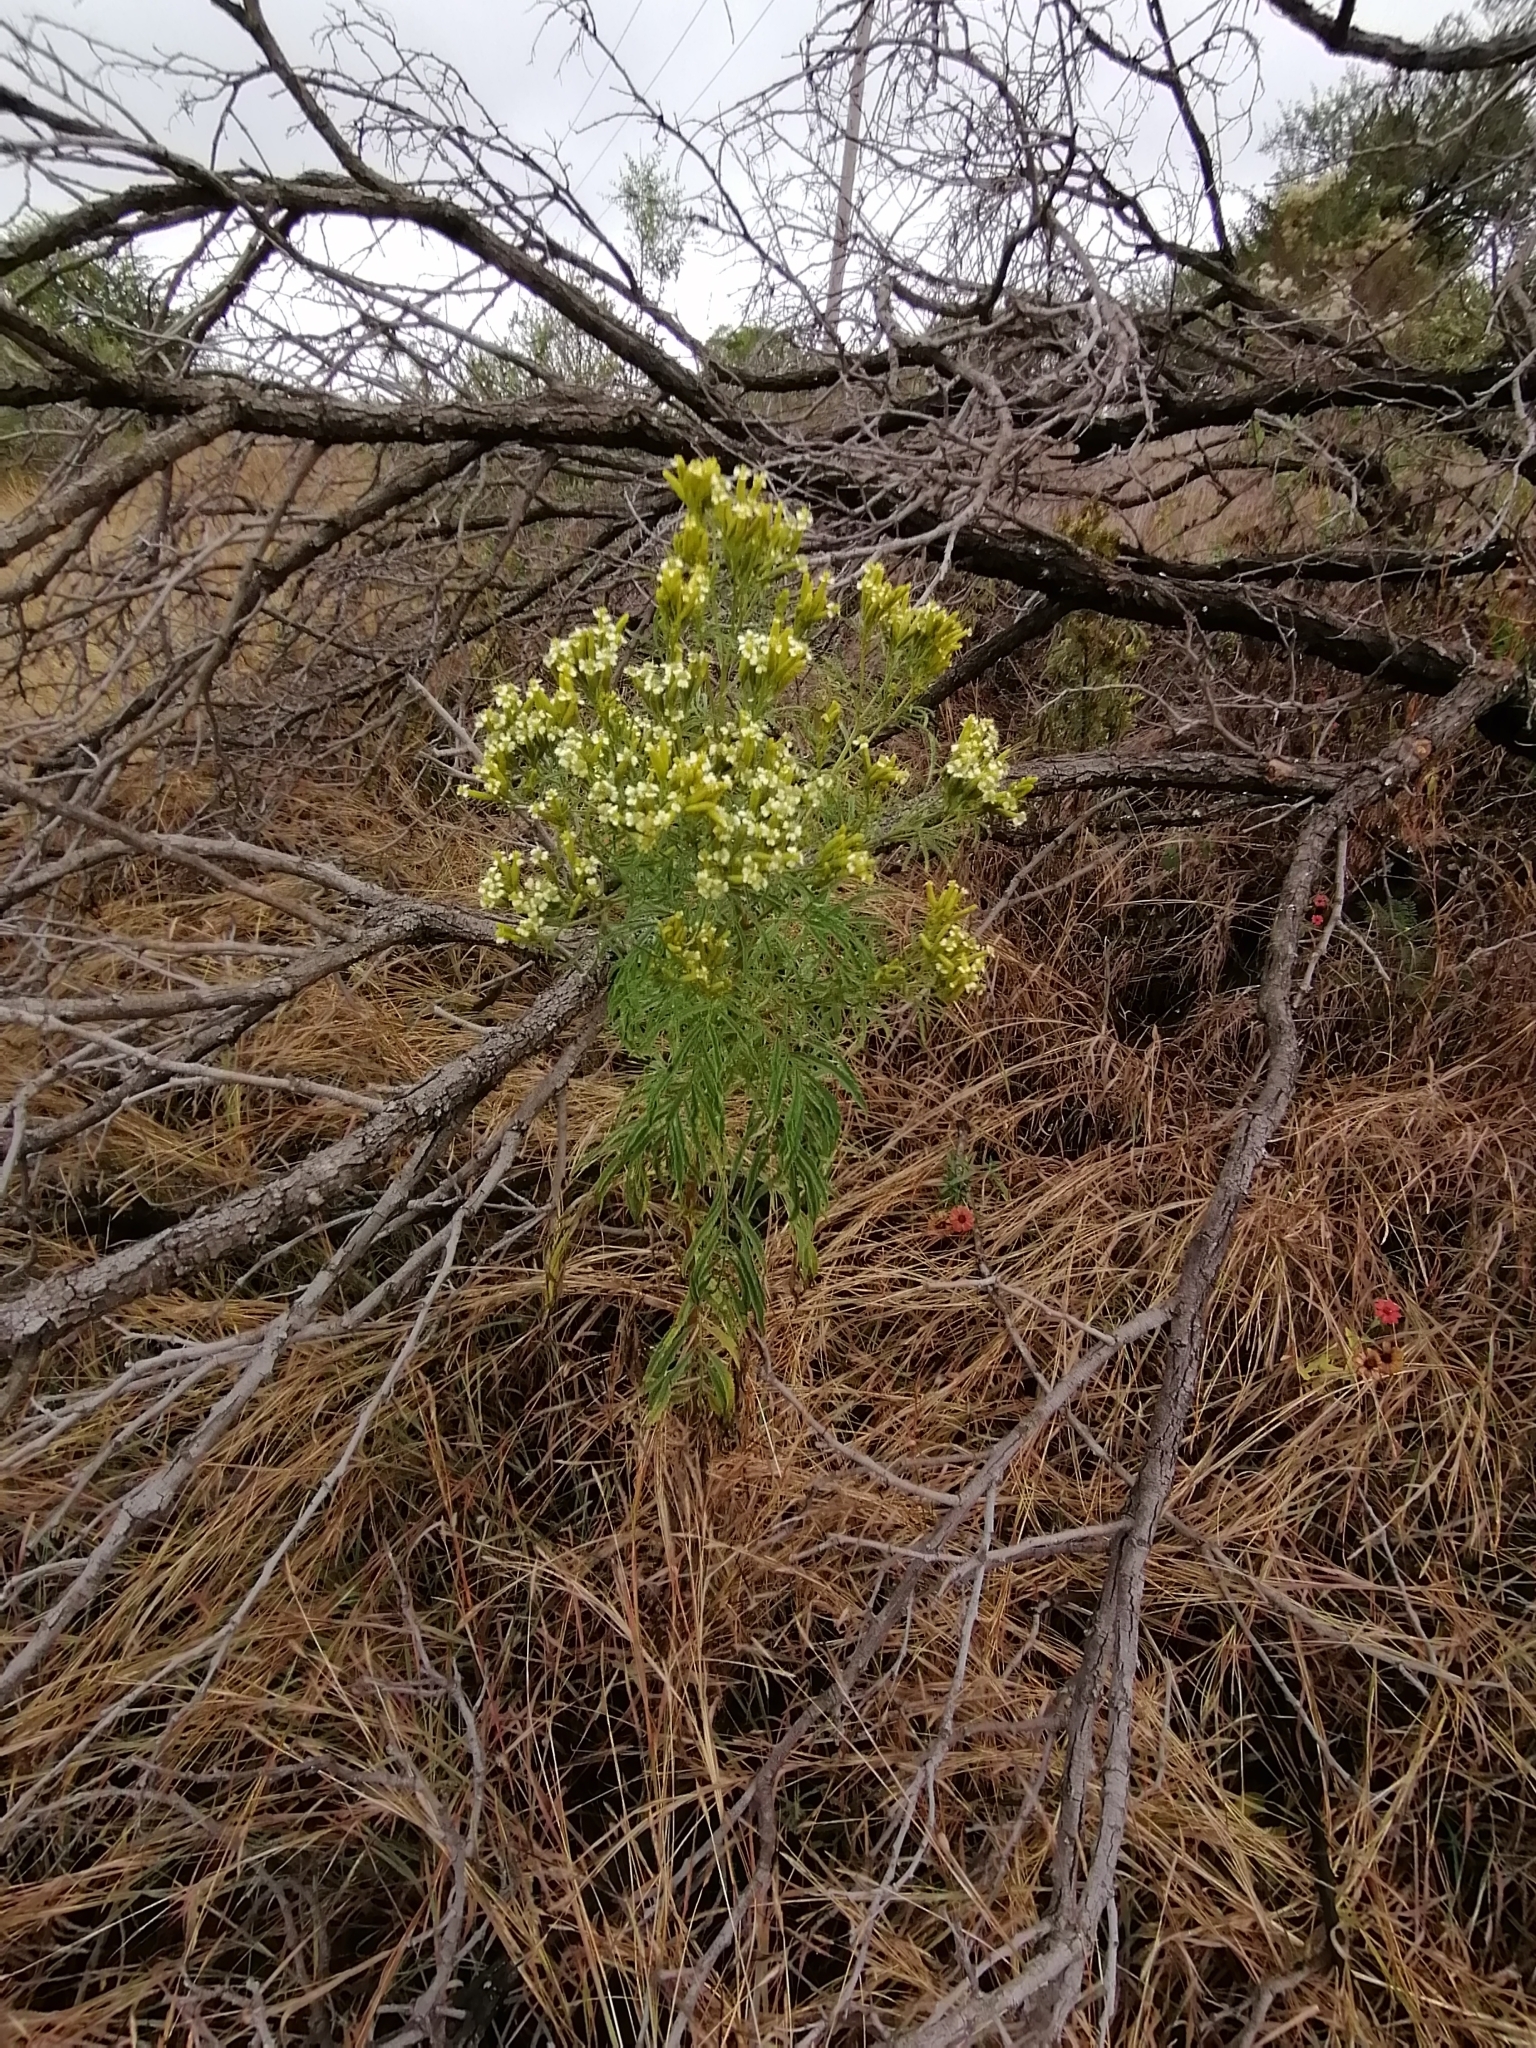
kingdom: Plantae
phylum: Tracheophyta
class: Magnoliopsida
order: Asterales
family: Asteraceae
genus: Tagetes
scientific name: Tagetes minuta
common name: Muster john henry
